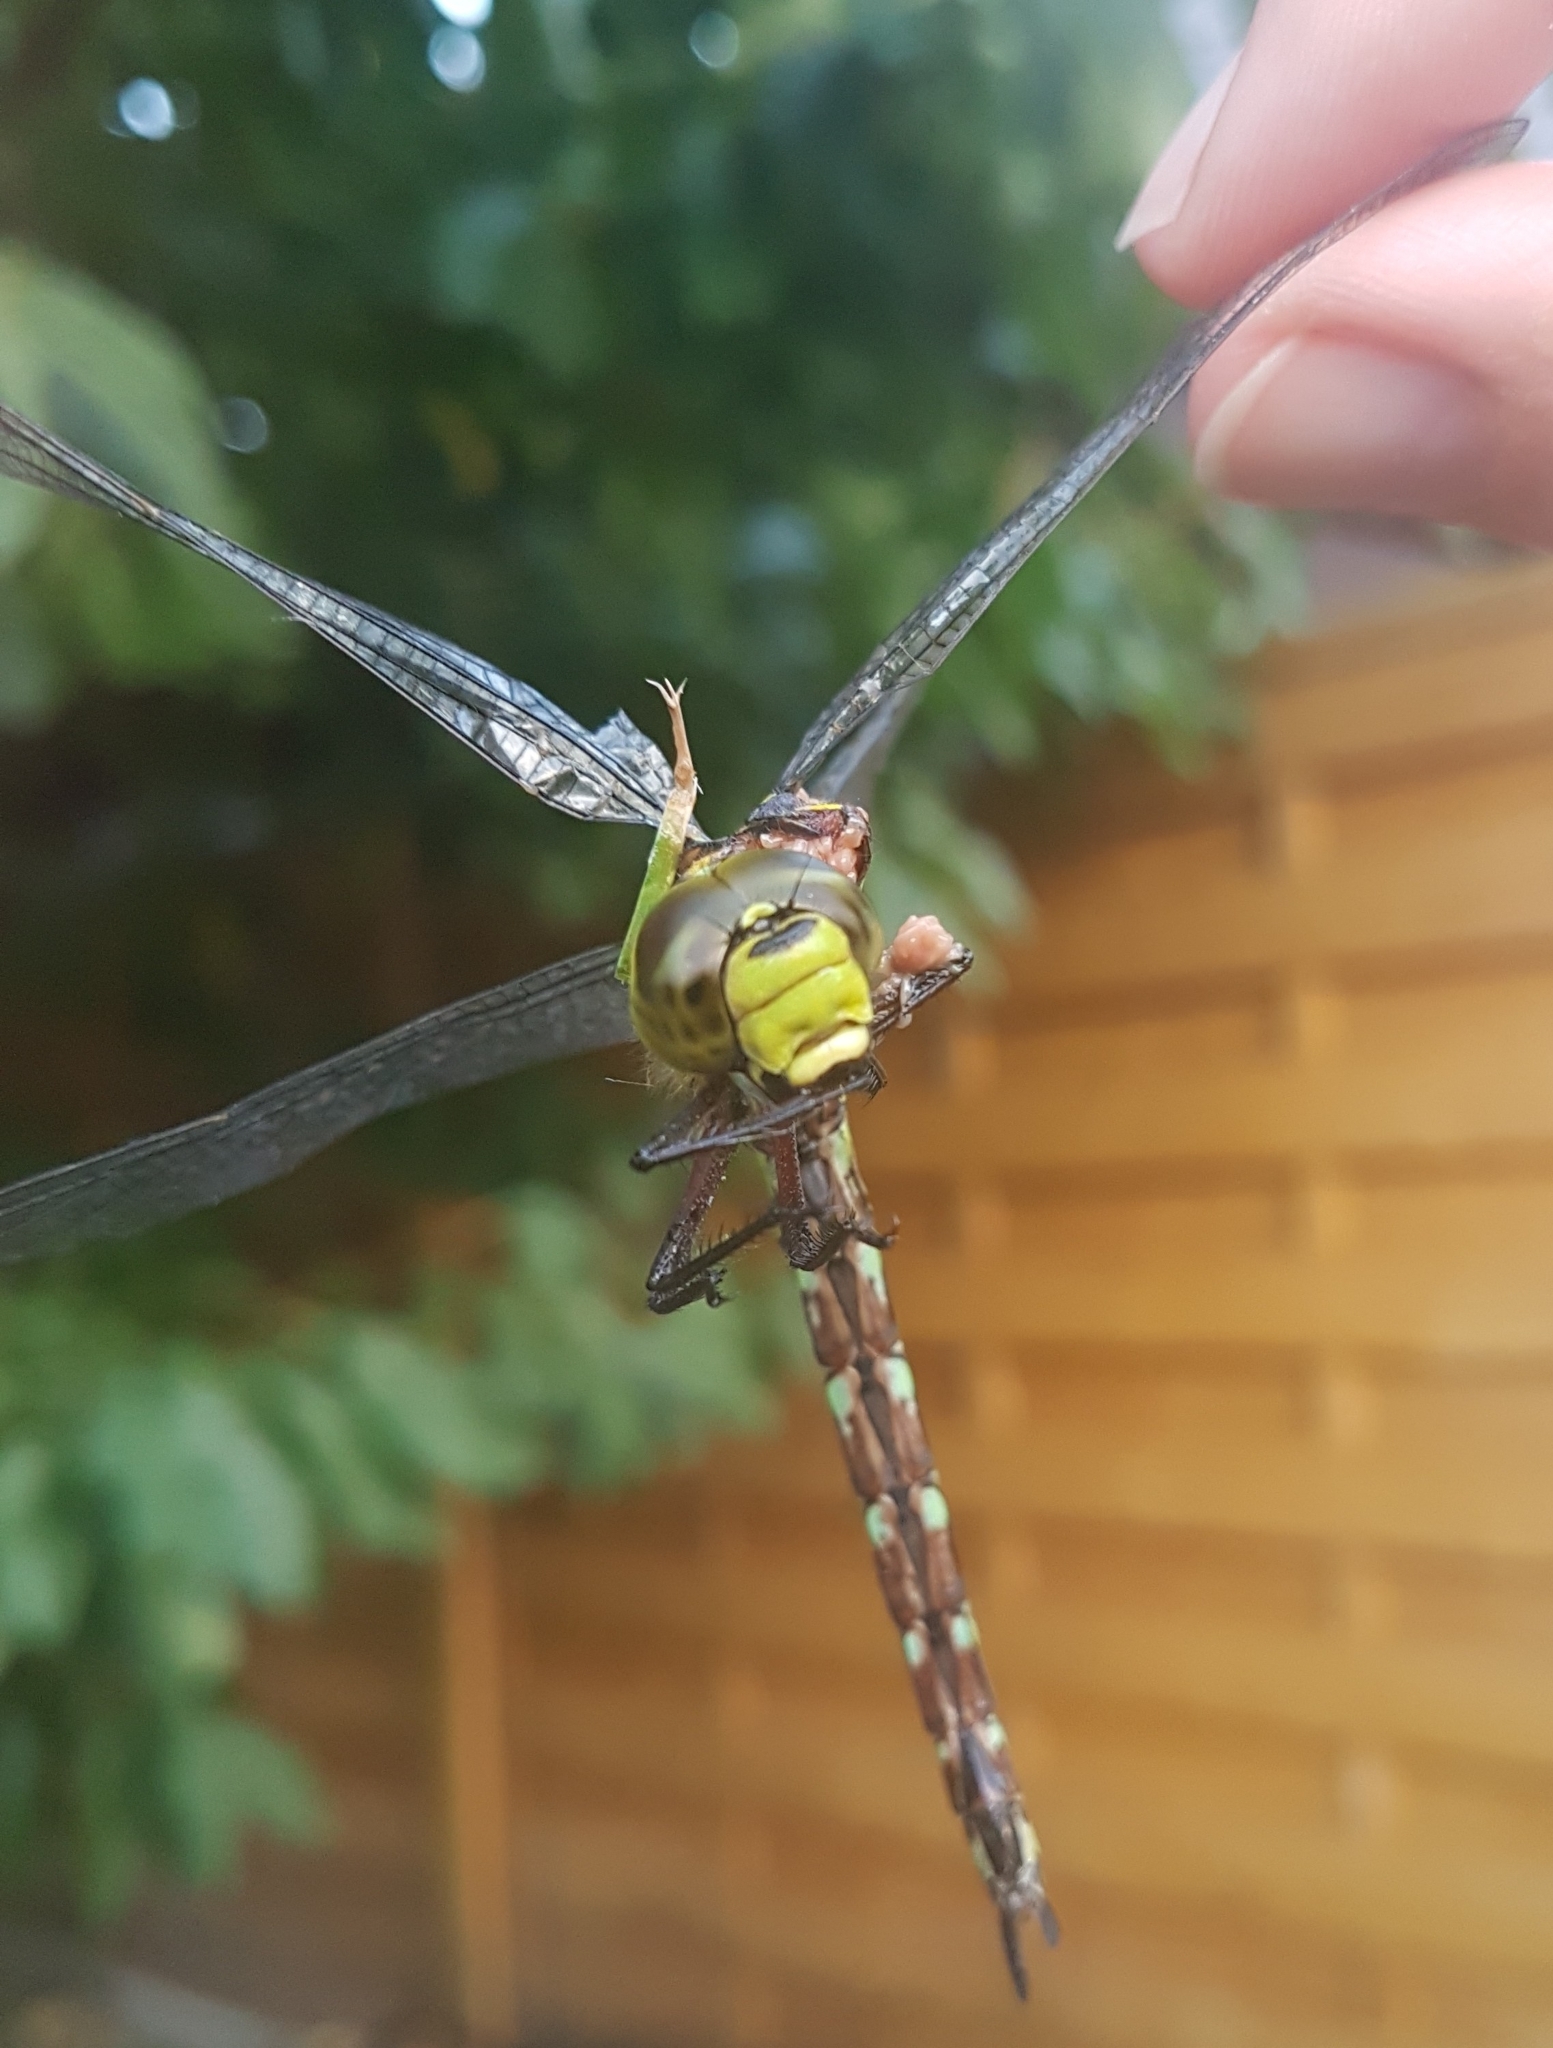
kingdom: Animalia
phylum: Arthropoda
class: Insecta
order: Odonata
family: Aeshnidae
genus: Aeshna
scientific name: Aeshna cyanea
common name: Southern hawker
